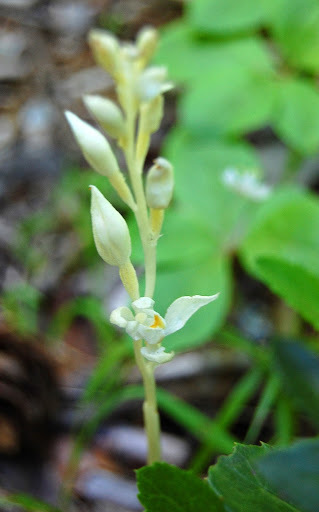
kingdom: Plantae
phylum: Tracheophyta
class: Liliopsida
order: Asparagales
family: Orchidaceae
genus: Cephalanthera
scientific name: Cephalanthera austiniae
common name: Phantom orchid
